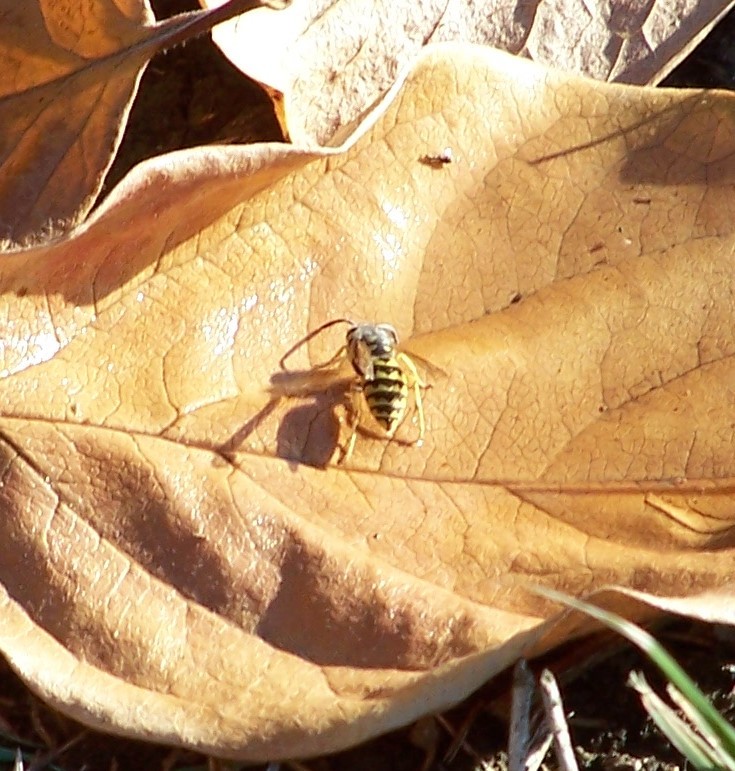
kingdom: Animalia
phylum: Arthropoda
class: Insecta
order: Hymenoptera
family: Vespidae
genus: Vespula
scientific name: Vespula pensylvanica
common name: Western yellowjacket
